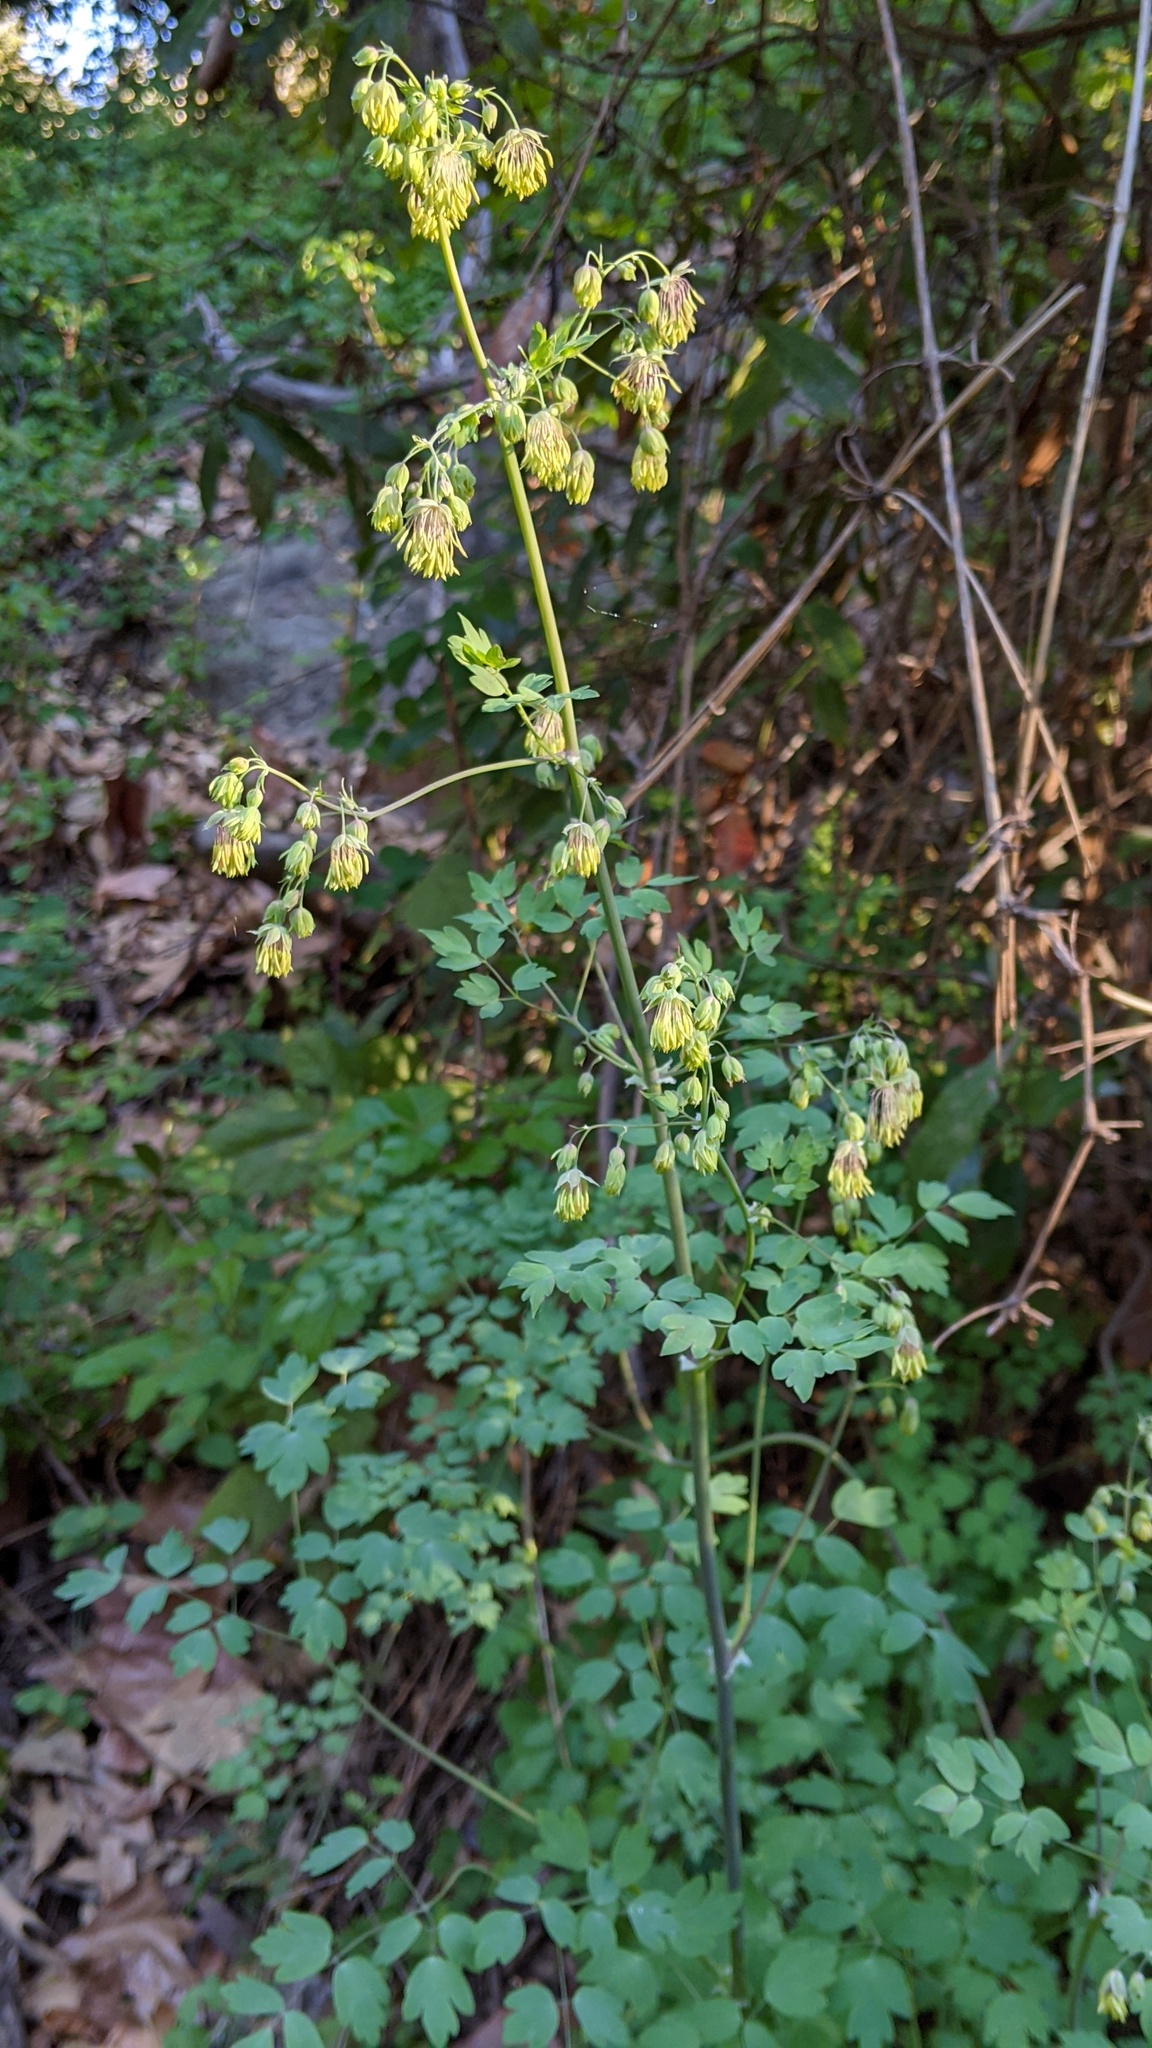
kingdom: Plantae
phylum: Tracheophyta
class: Magnoliopsida
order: Ranunculales
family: Ranunculaceae
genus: Thalictrum
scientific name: Thalictrum fendleri
